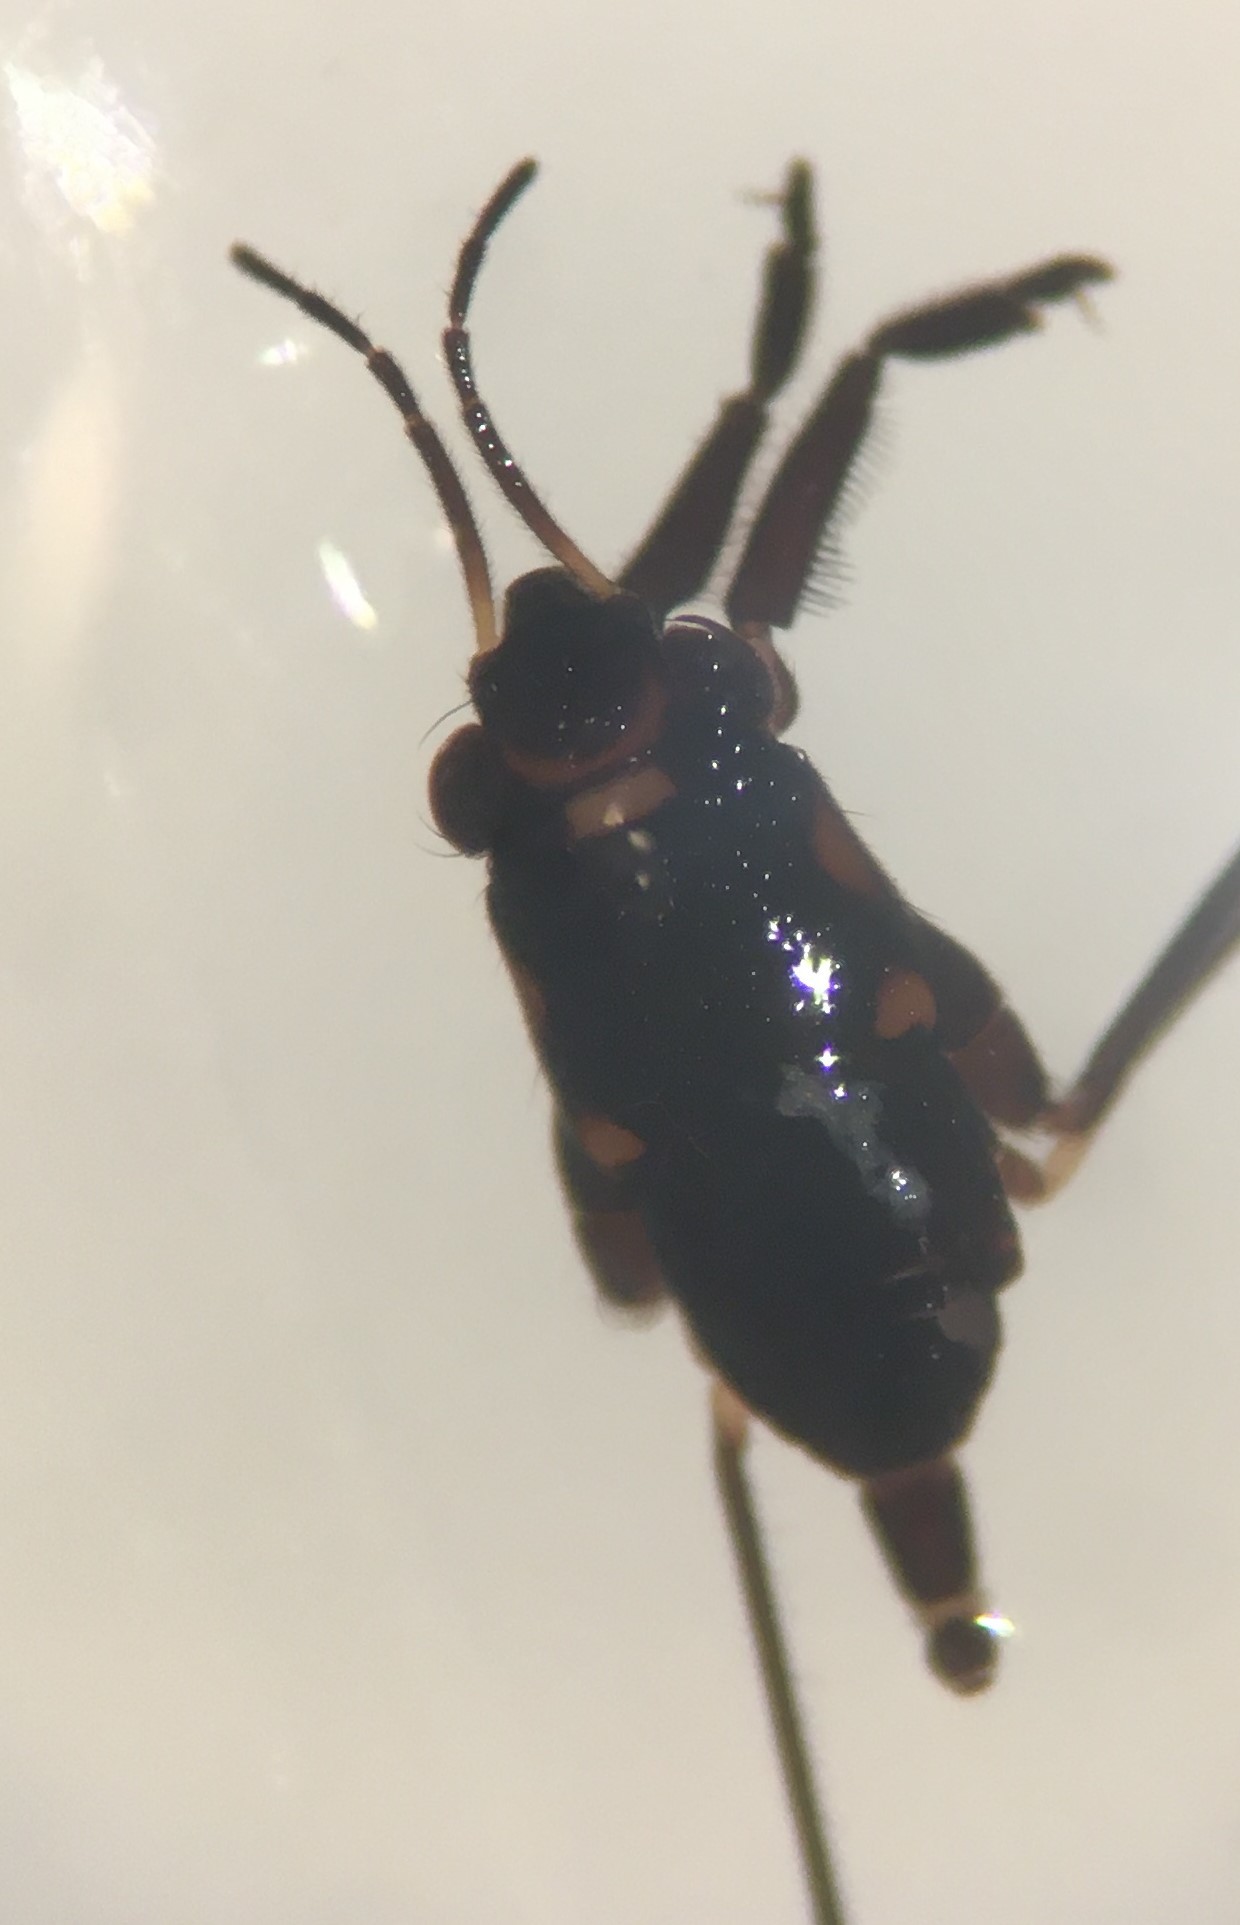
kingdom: Animalia
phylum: Arthropoda
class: Insecta
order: Hemiptera
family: Gerridae
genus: Rheumatobates
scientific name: Rheumatobates clanis
